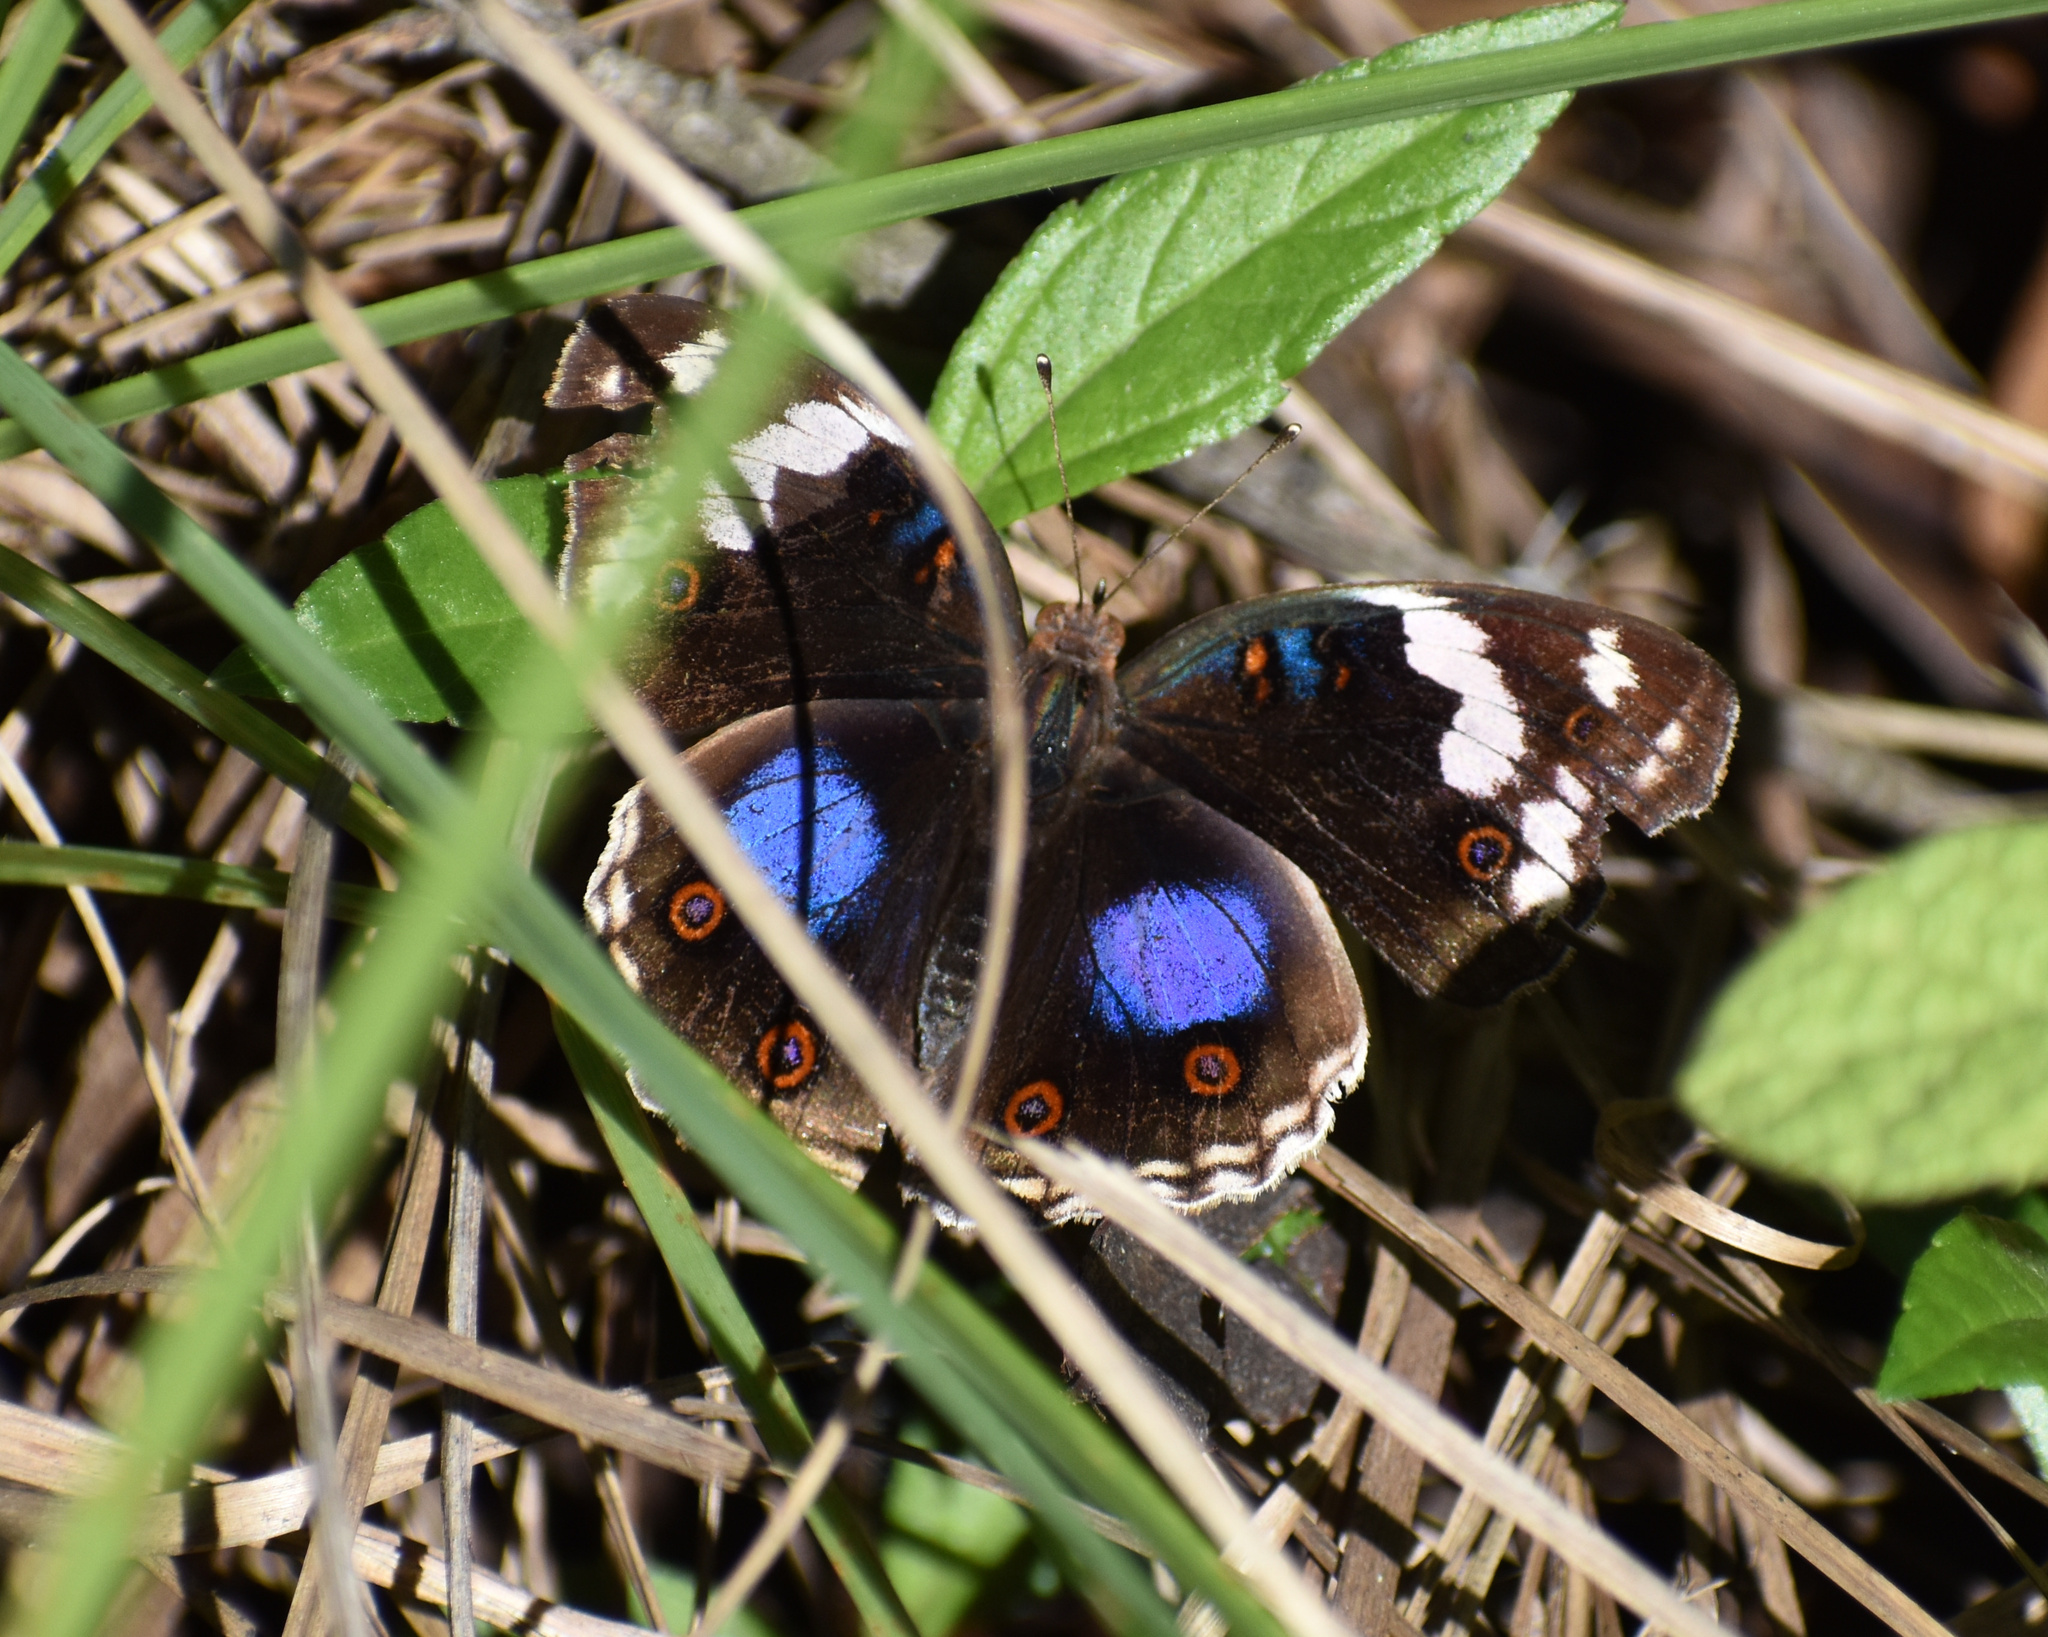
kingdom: Animalia
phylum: Arthropoda
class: Insecta
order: Lepidoptera
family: Nymphalidae
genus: Junonia
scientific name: Junonia oenone
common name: Dark blue pansy
